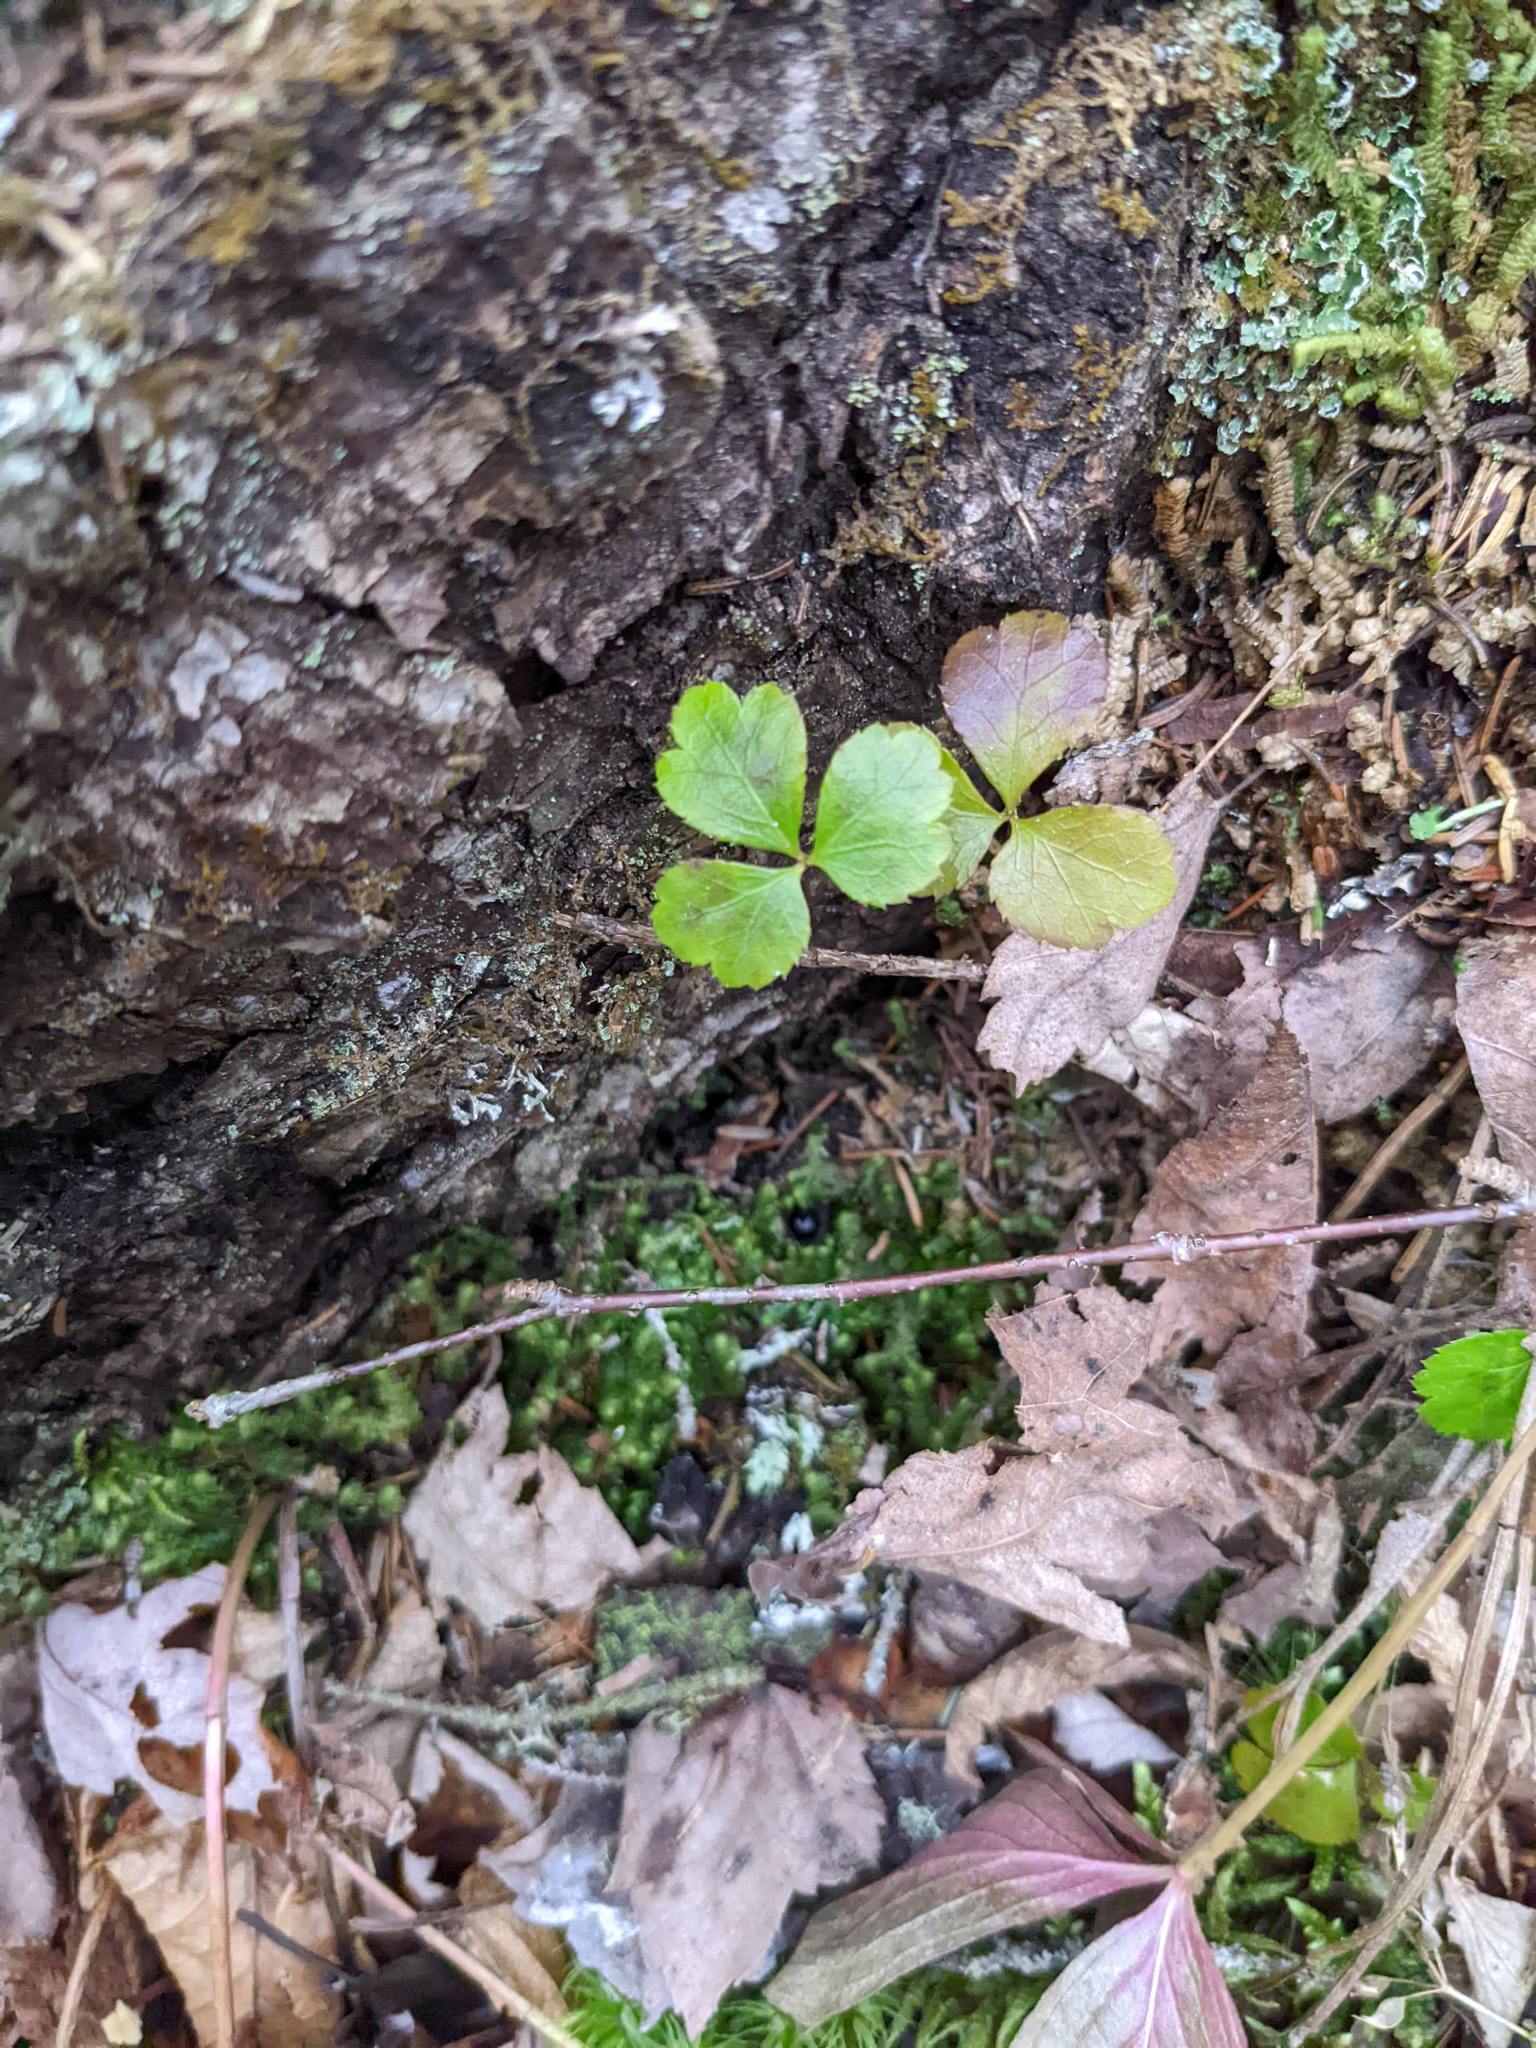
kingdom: Plantae
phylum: Tracheophyta
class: Magnoliopsida
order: Ranunculales
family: Ranunculaceae
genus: Coptis
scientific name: Coptis trifolia
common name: Canker-root
